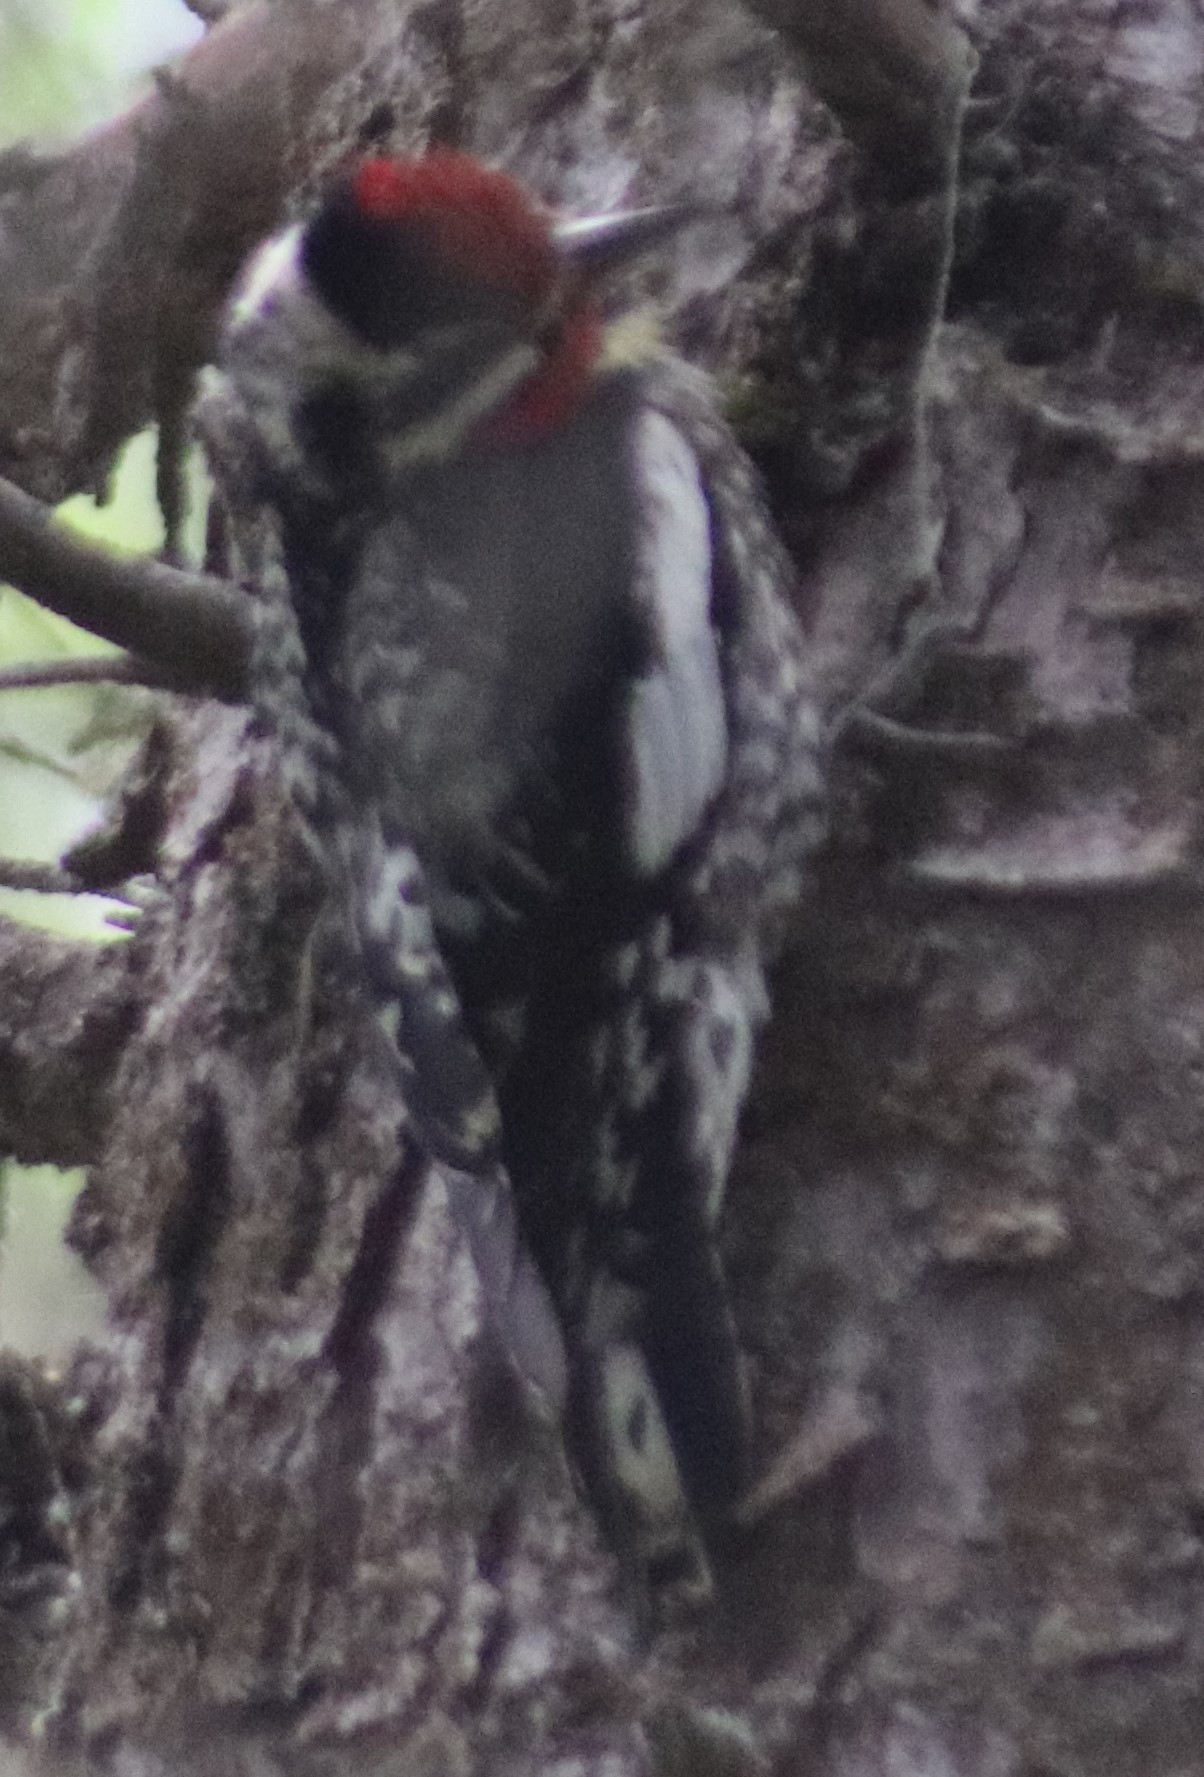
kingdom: Animalia
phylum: Chordata
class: Aves
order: Piciformes
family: Picidae
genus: Sphyrapicus
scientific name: Sphyrapicus varius
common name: Yellow-bellied sapsucker
